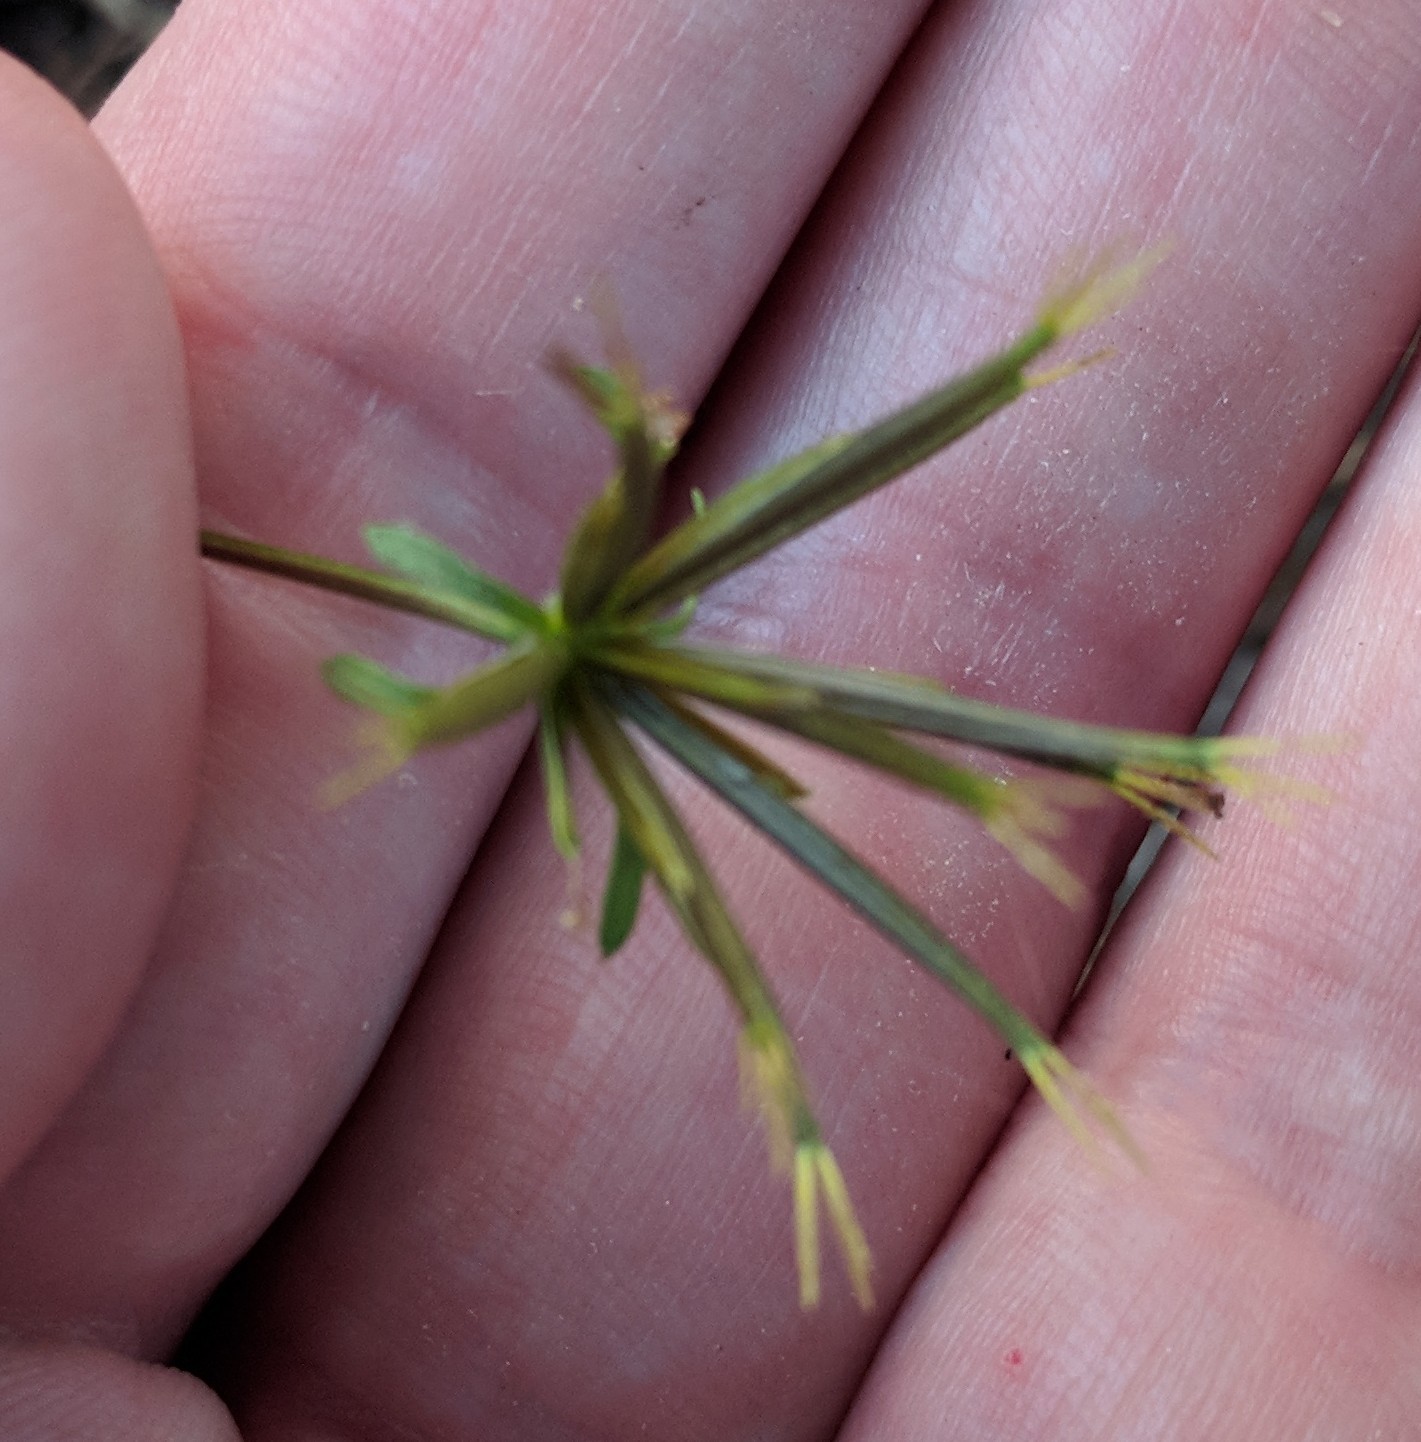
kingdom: Plantae
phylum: Tracheophyta
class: Magnoliopsida
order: Asterales
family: Asteraceae
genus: Bidens
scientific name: Bidens bipinnata
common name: Spanish-needles
